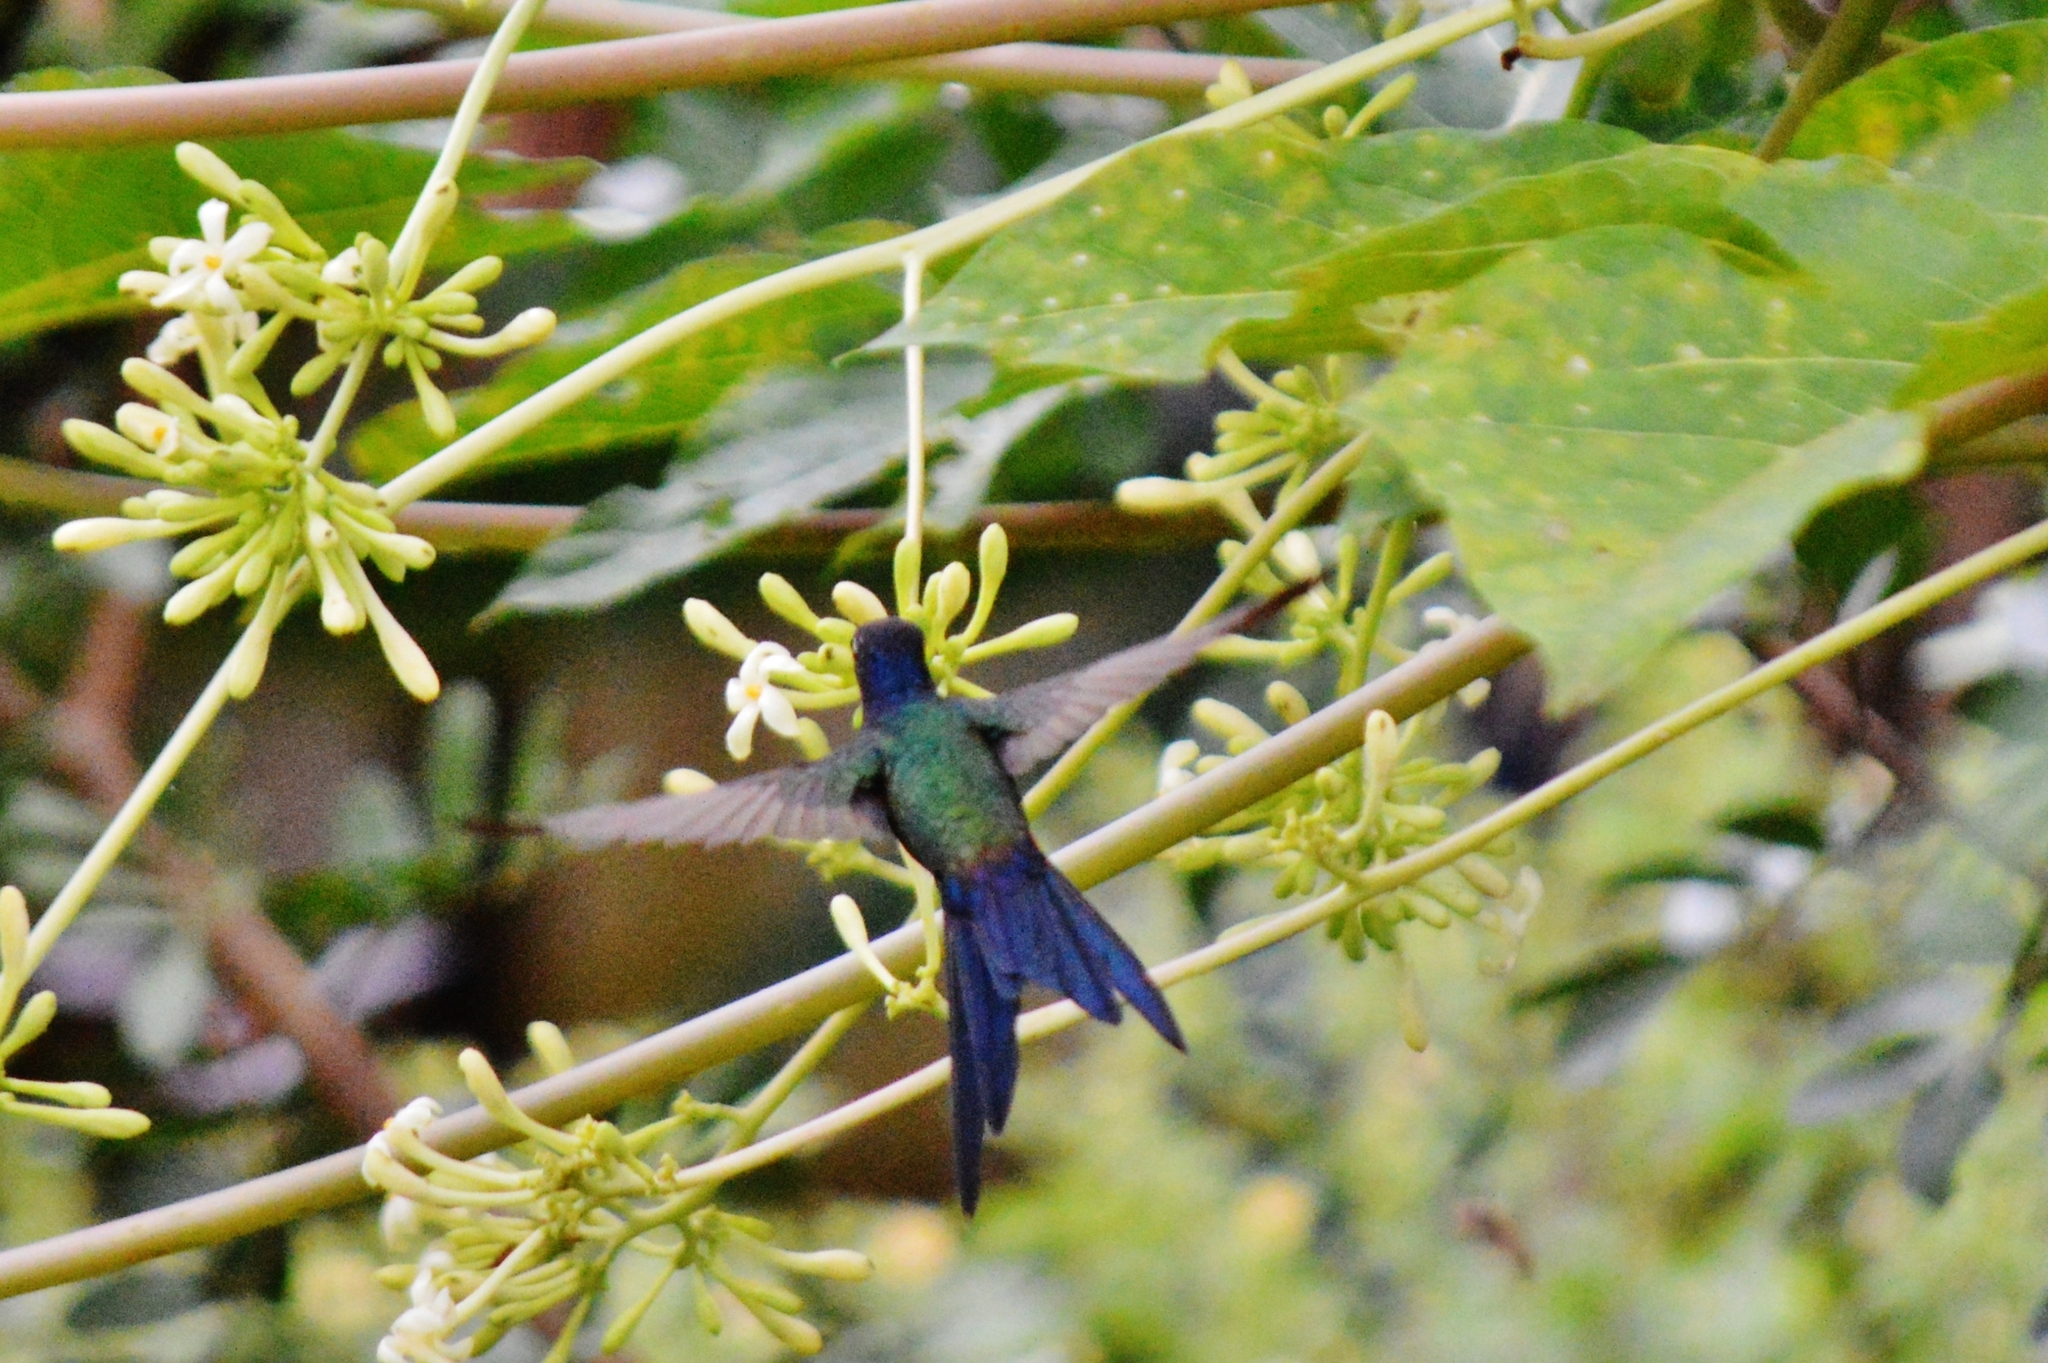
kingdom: Animalia
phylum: Chordata
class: Aves
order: Apodiformes
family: Trochilidae
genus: Eupetomena
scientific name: Eupetomena macroura
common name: Swallow-tailed hummingbird
